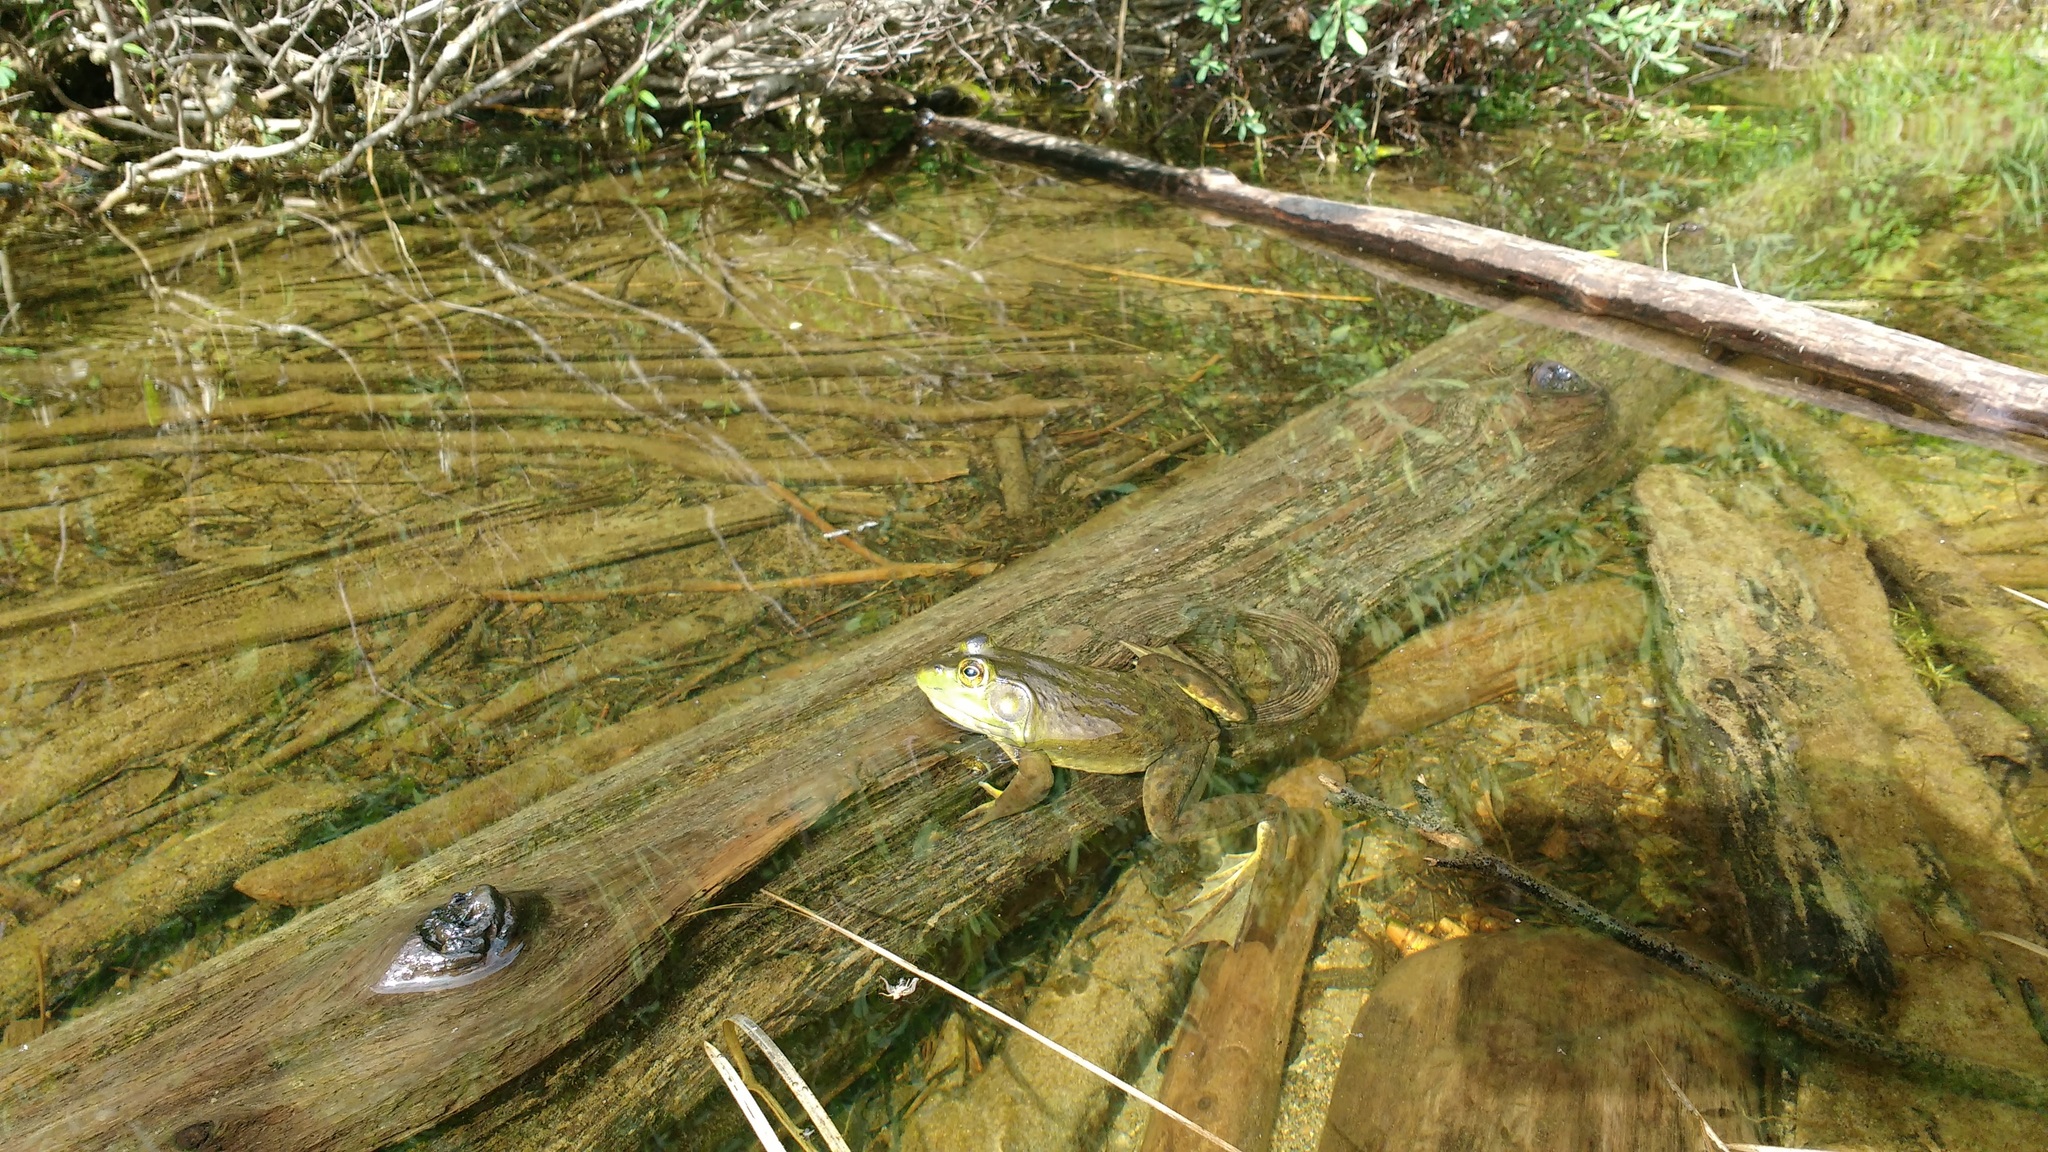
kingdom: Animalia
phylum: Chordata
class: Amphibia
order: Anura
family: Ranidae
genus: Lithobates
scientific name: Lithobates catesbeianus
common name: American bullfrog
